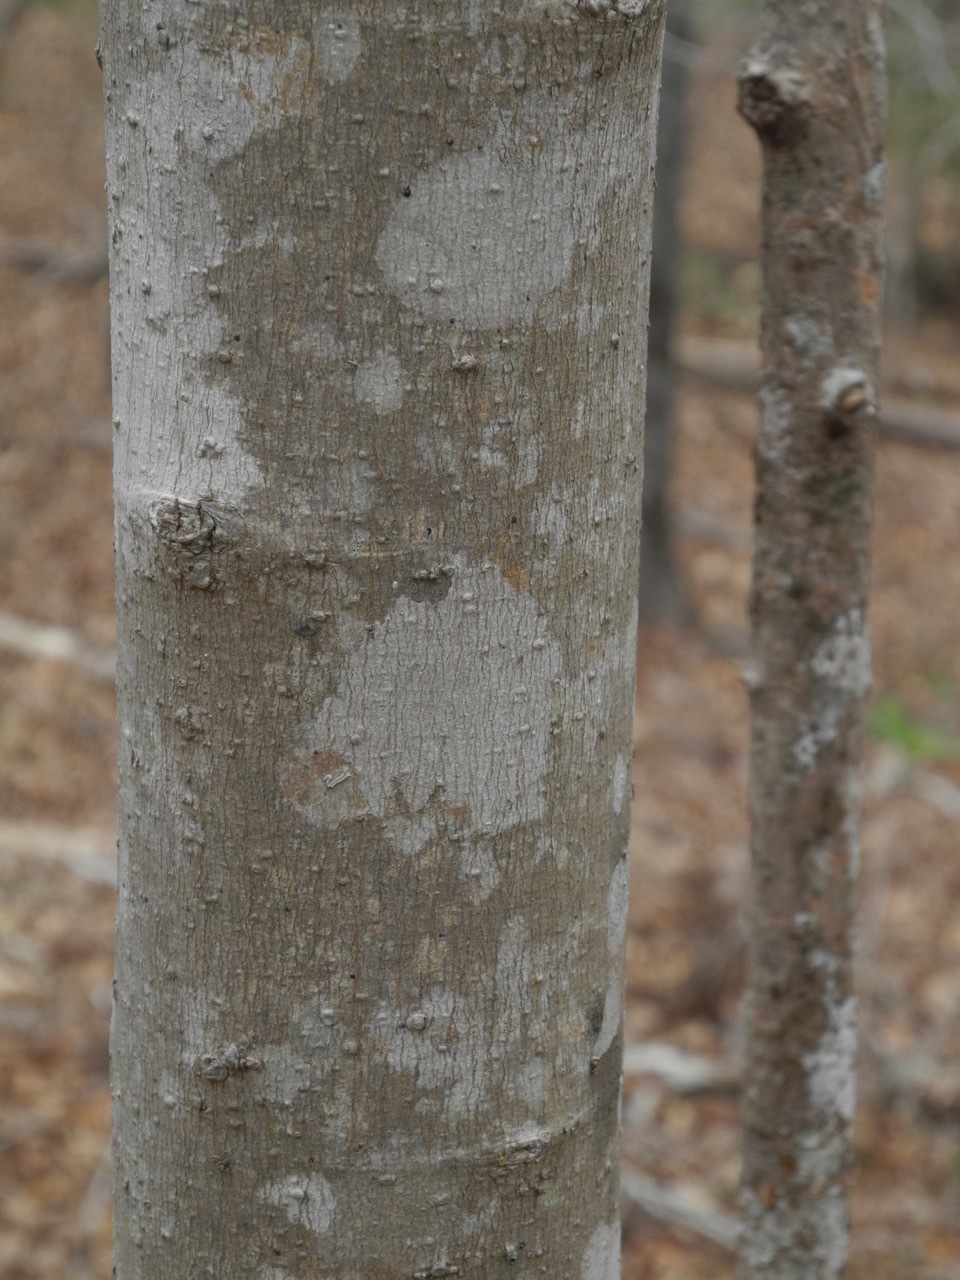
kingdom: Plantae
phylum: Tracheophyta
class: Magnoliopsida
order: Sapindales
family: Sapindaceae
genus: Acer
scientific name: Acer freemanii
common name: Freeman maple
